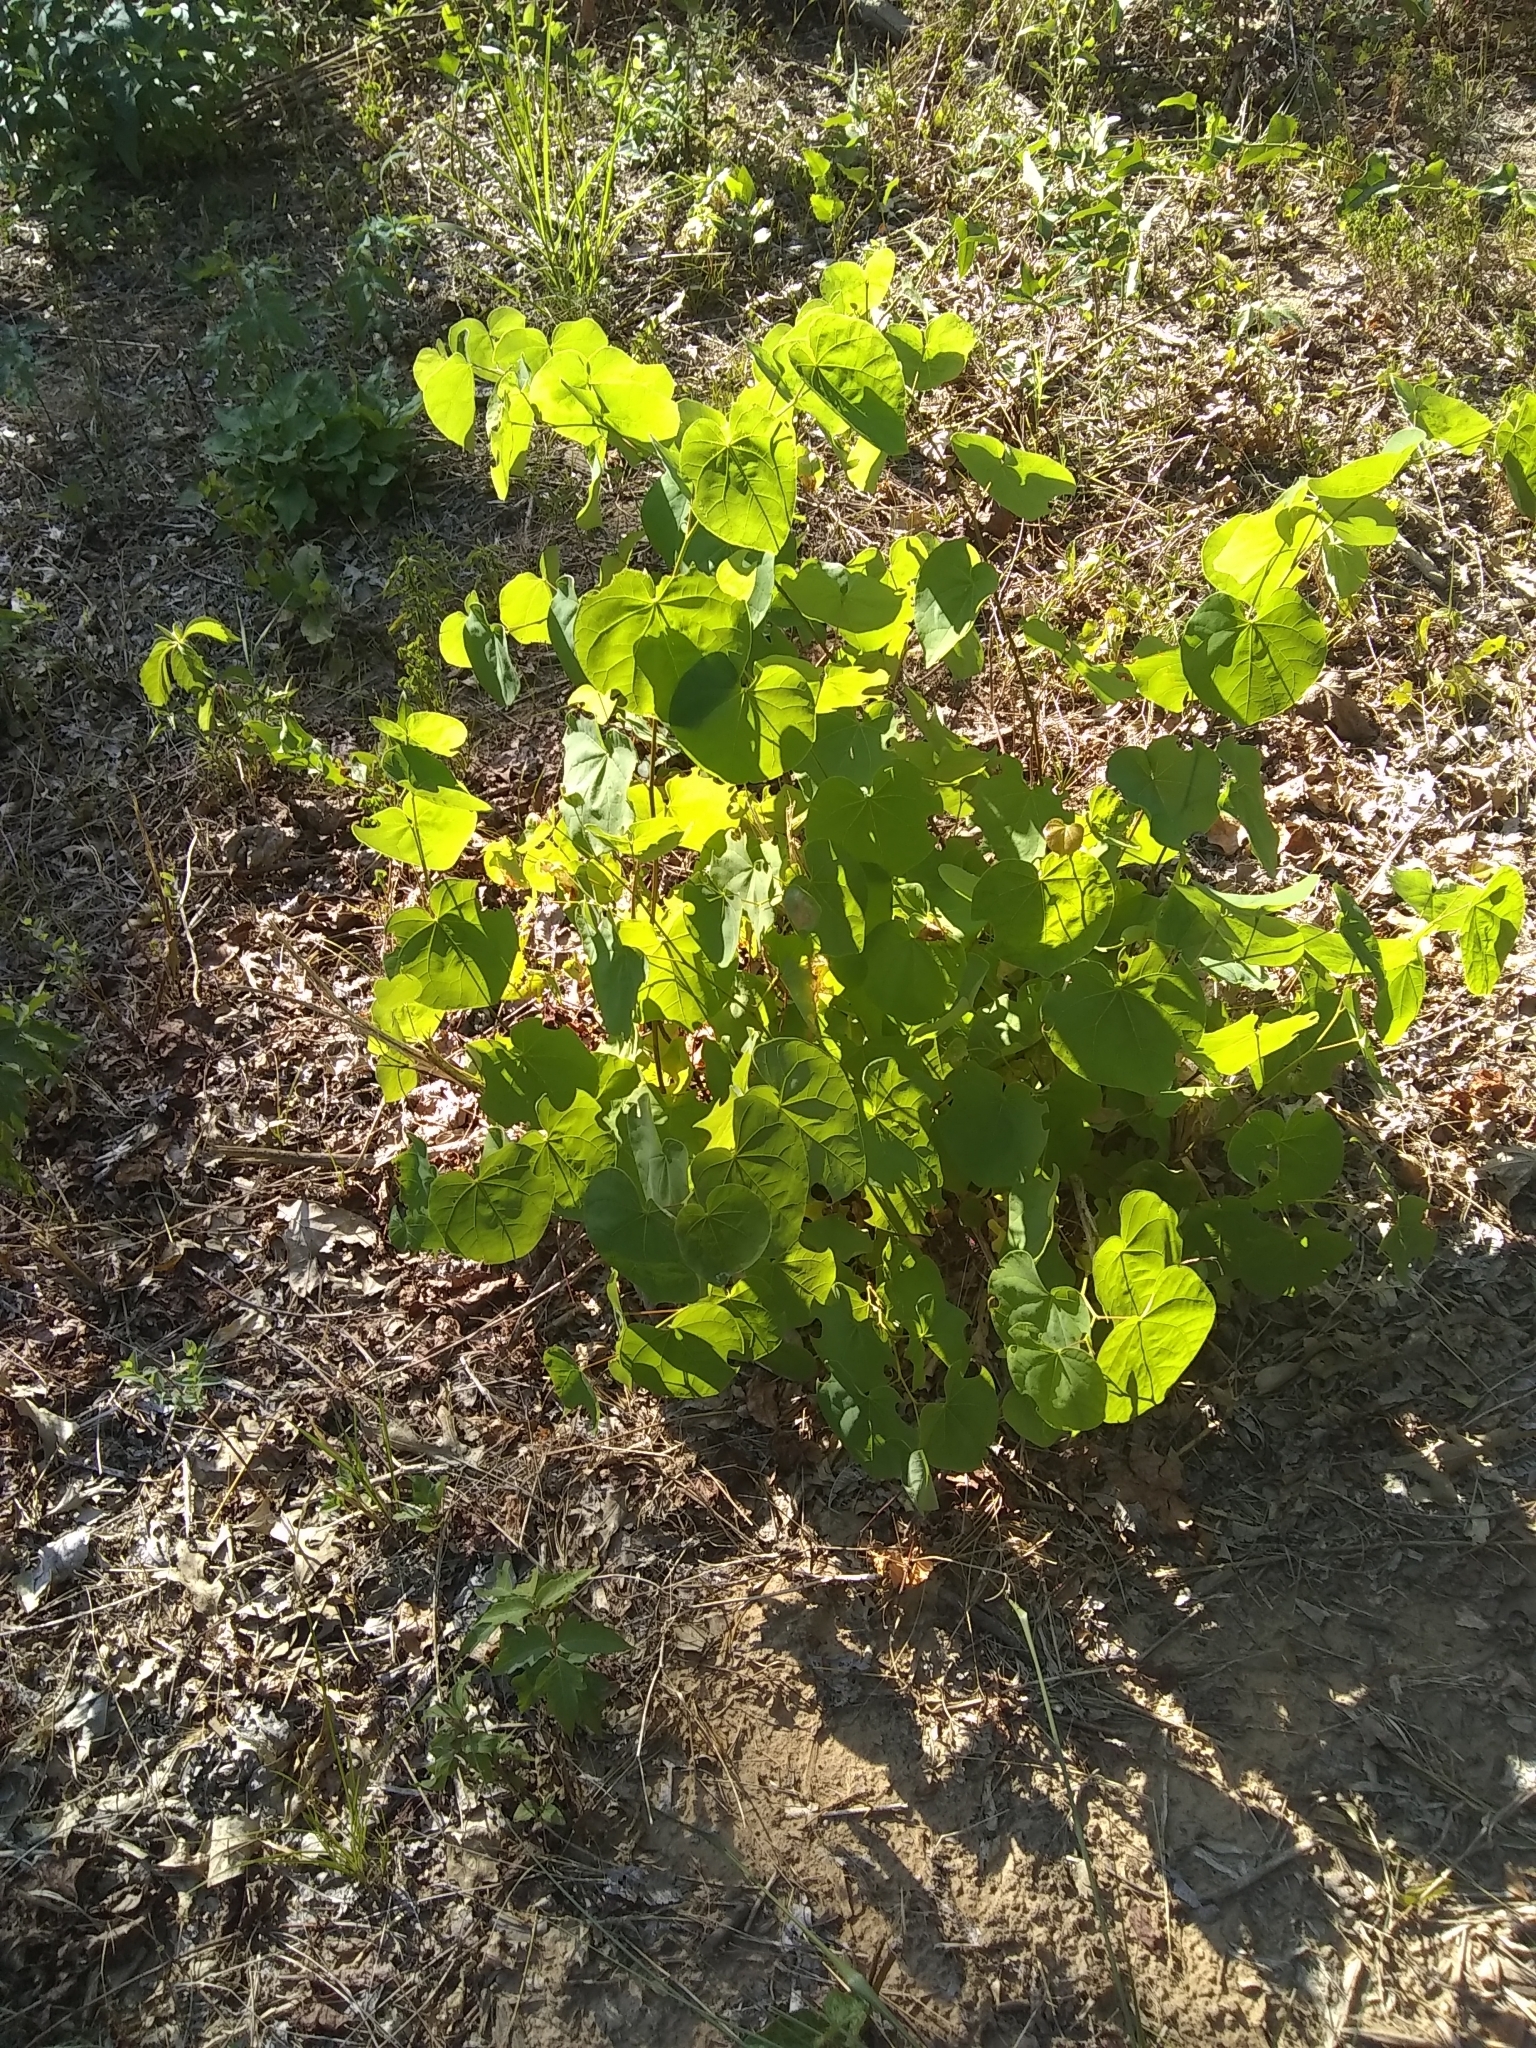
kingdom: Plantae
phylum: Tracheophyta
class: Magnoliopsida
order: Fabales
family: Fabaceae
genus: Cercis
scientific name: Cercis canadensis
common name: Eastern redbud
